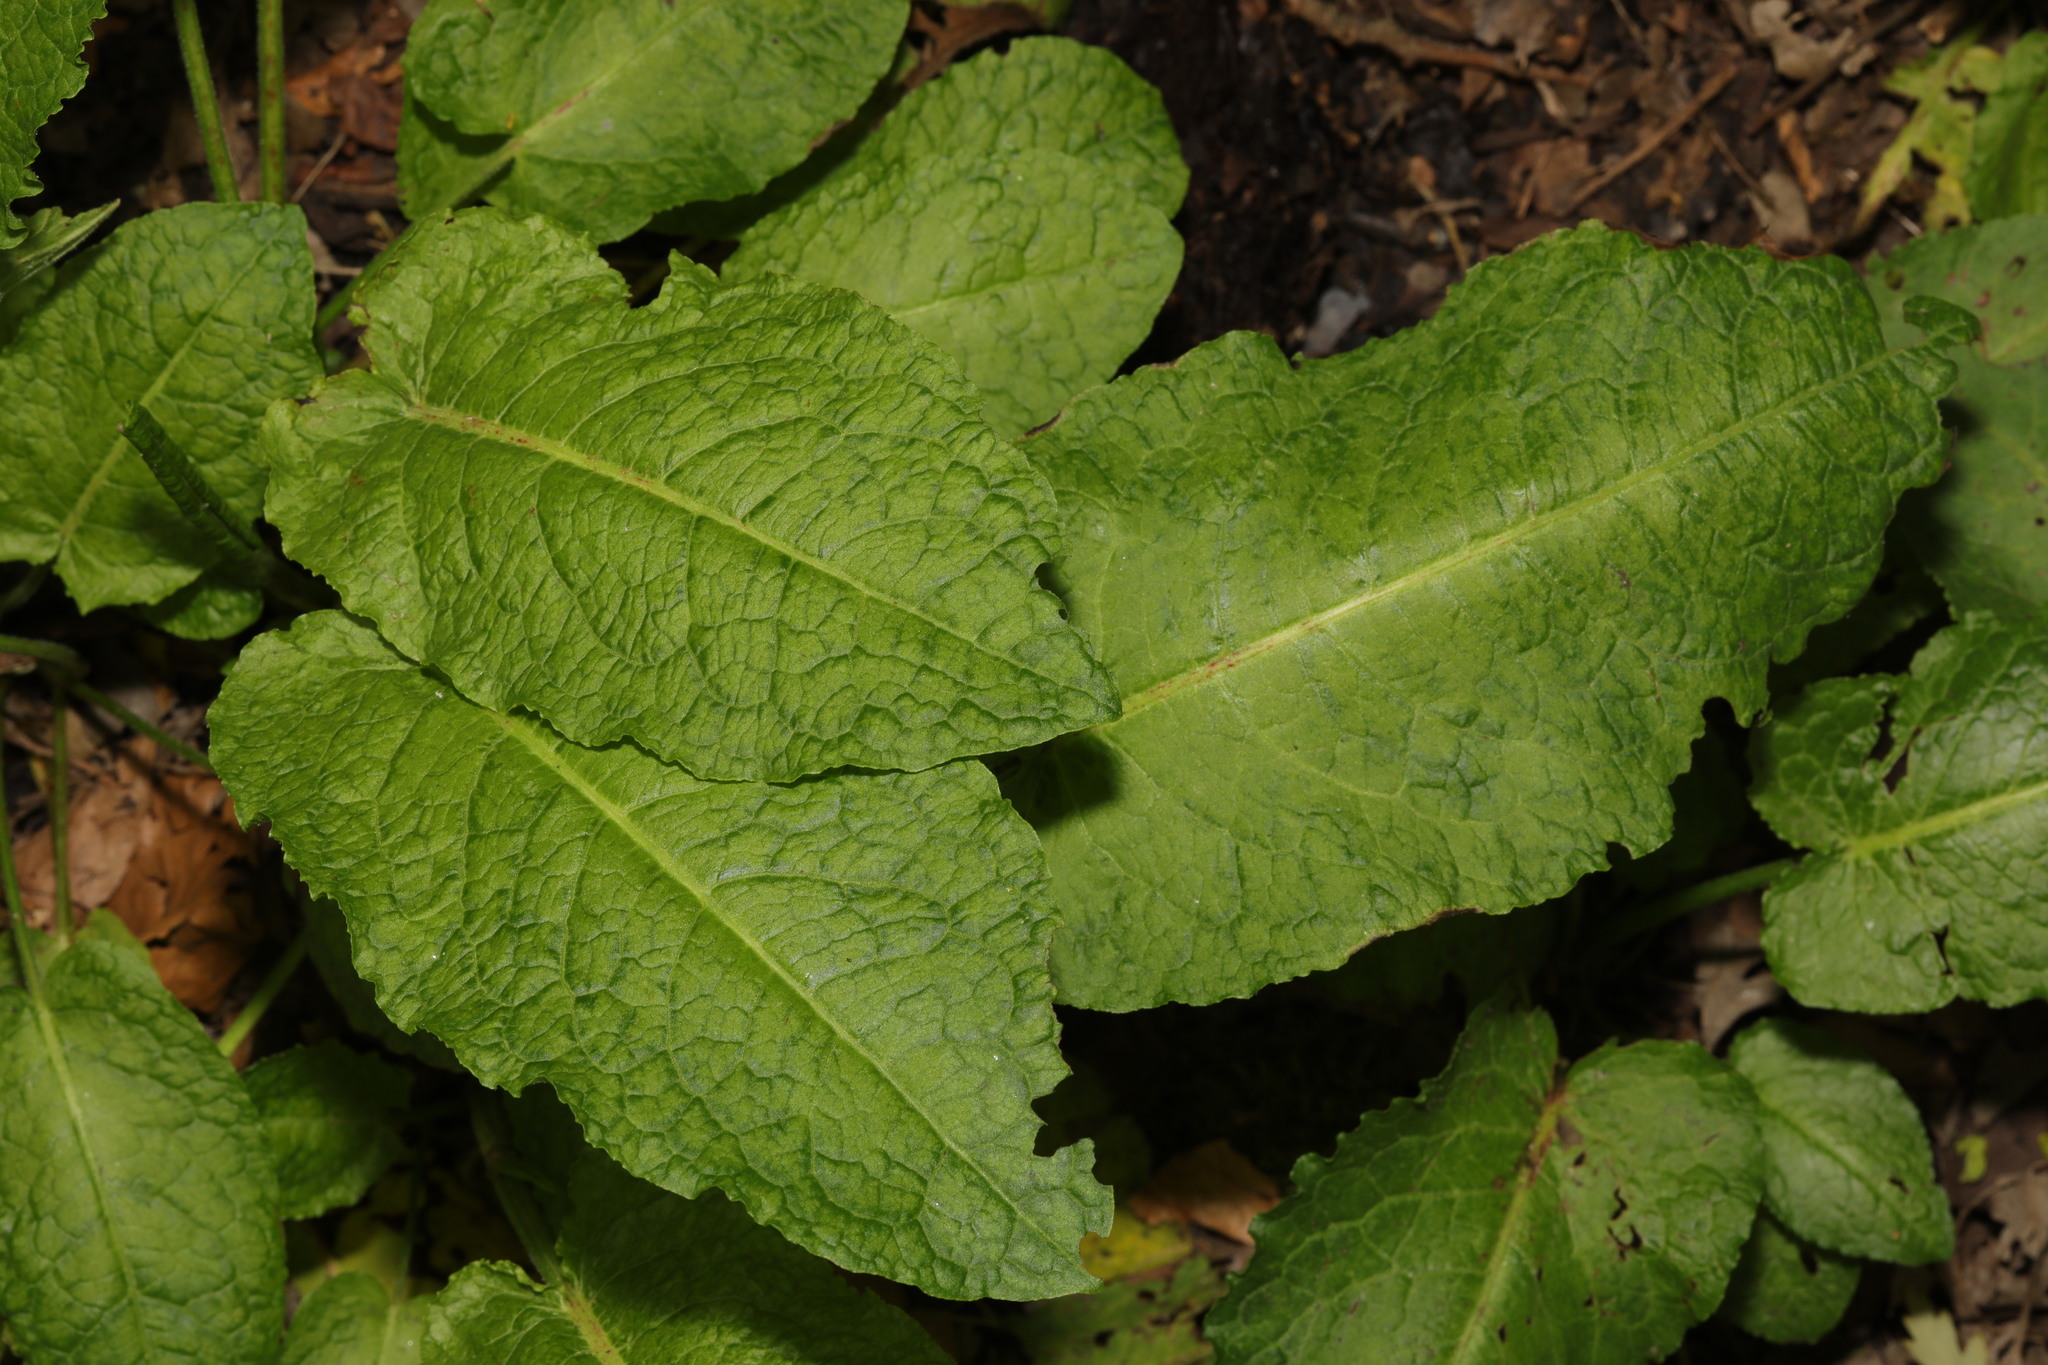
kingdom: Plantae
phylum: Tracheophyta
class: Magnoliopsida
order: Caryophyllales
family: Polygonaceae
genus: Rumex
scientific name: Rumex obtusifolius
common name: Bitter dock
